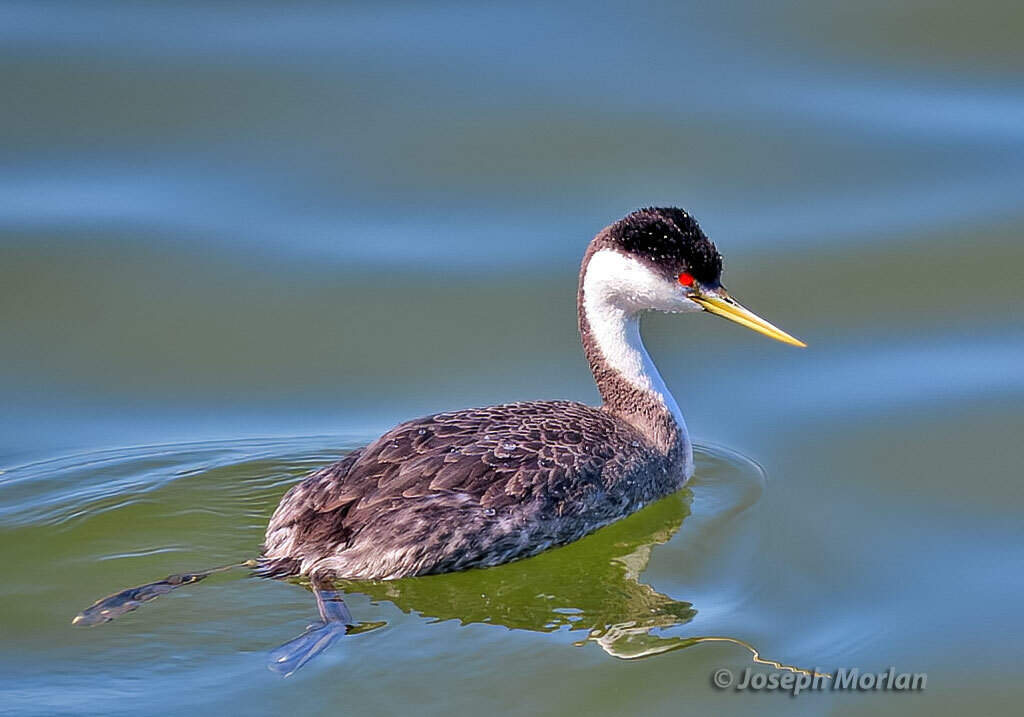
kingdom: Animalia
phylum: Chordata
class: Aves
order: Podicipediformes
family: Podicipedidae
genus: Aechmophorus
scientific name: Aechmophorus occidentalis
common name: Western grebe
